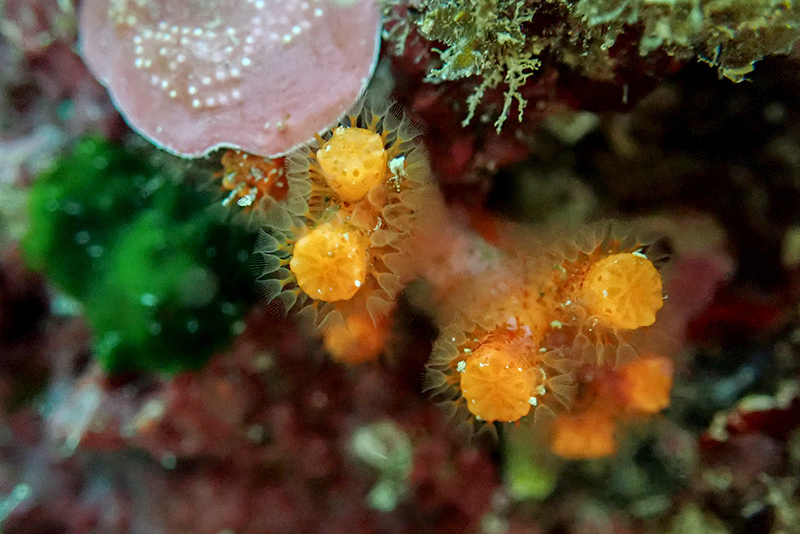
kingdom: Animalia
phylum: Bryozoa
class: Gymnolaemata
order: Cheilostomatida
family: Myriaporidae
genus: Myriapora
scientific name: Myriapora truncata
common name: False coral
